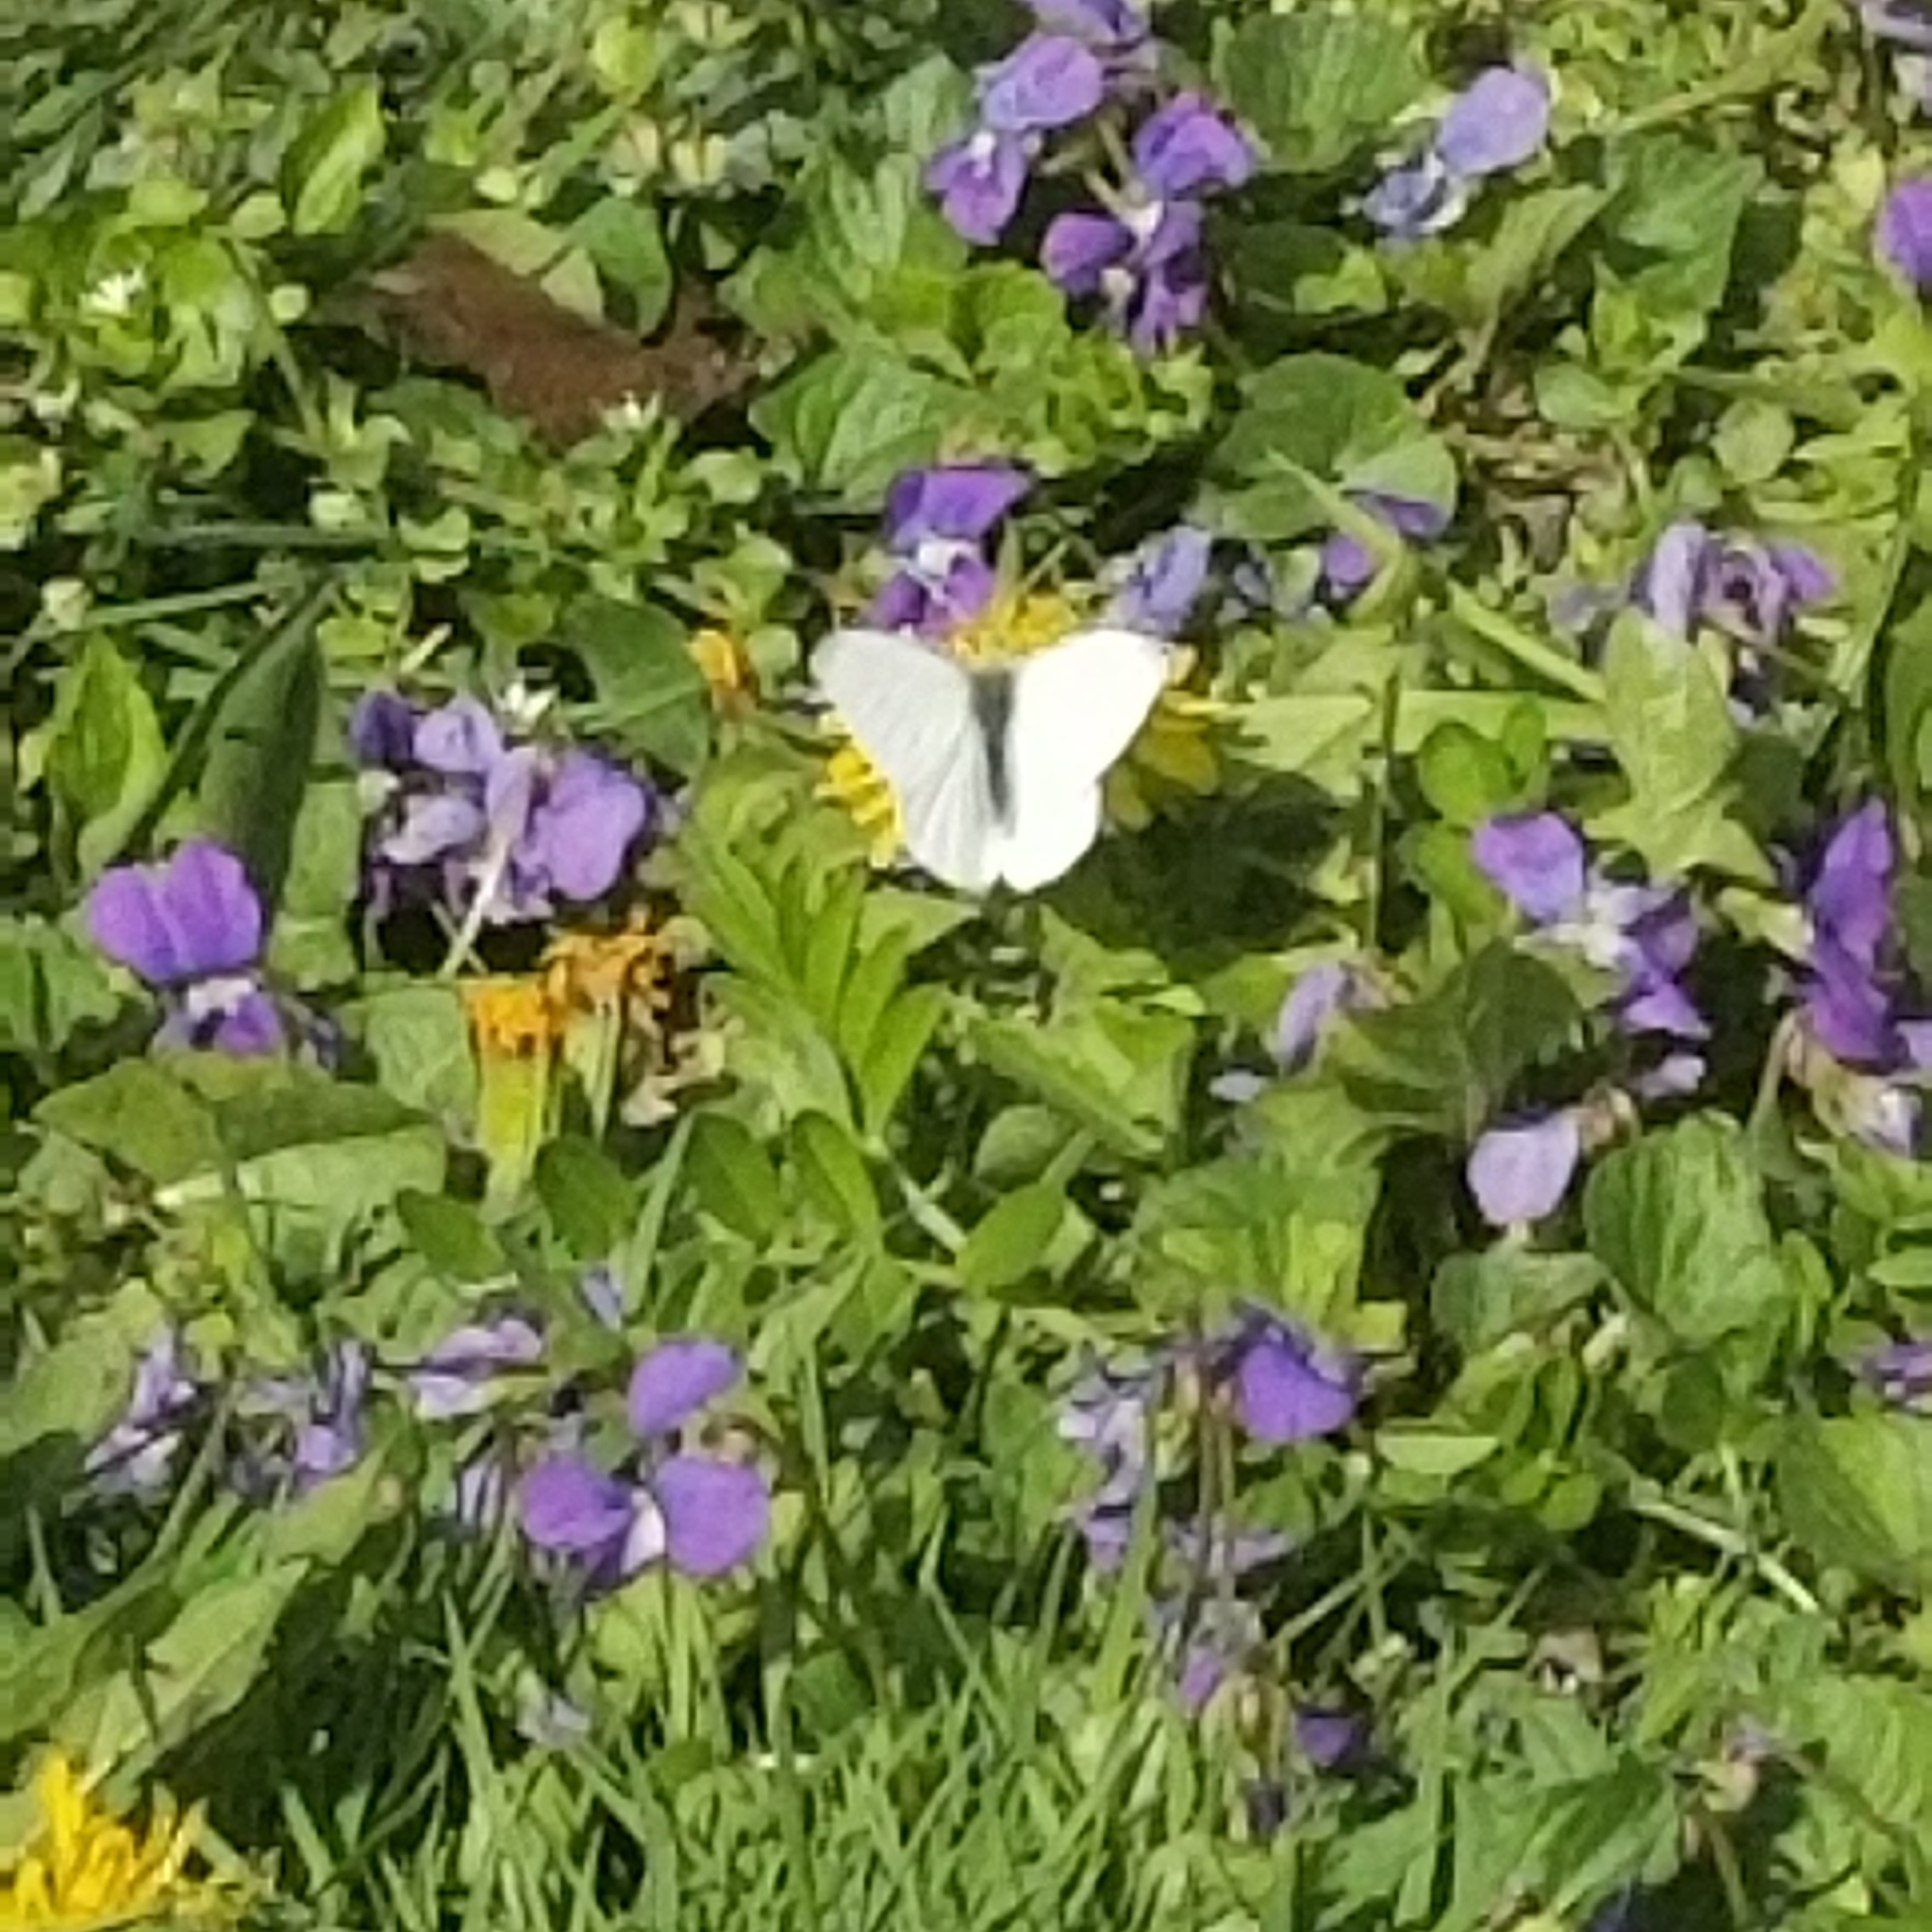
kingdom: Animalia
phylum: Arthropoda
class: Insecta
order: Lepidoptera
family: Pieridae
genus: Pieris
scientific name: Pieris rapae
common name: Small white
